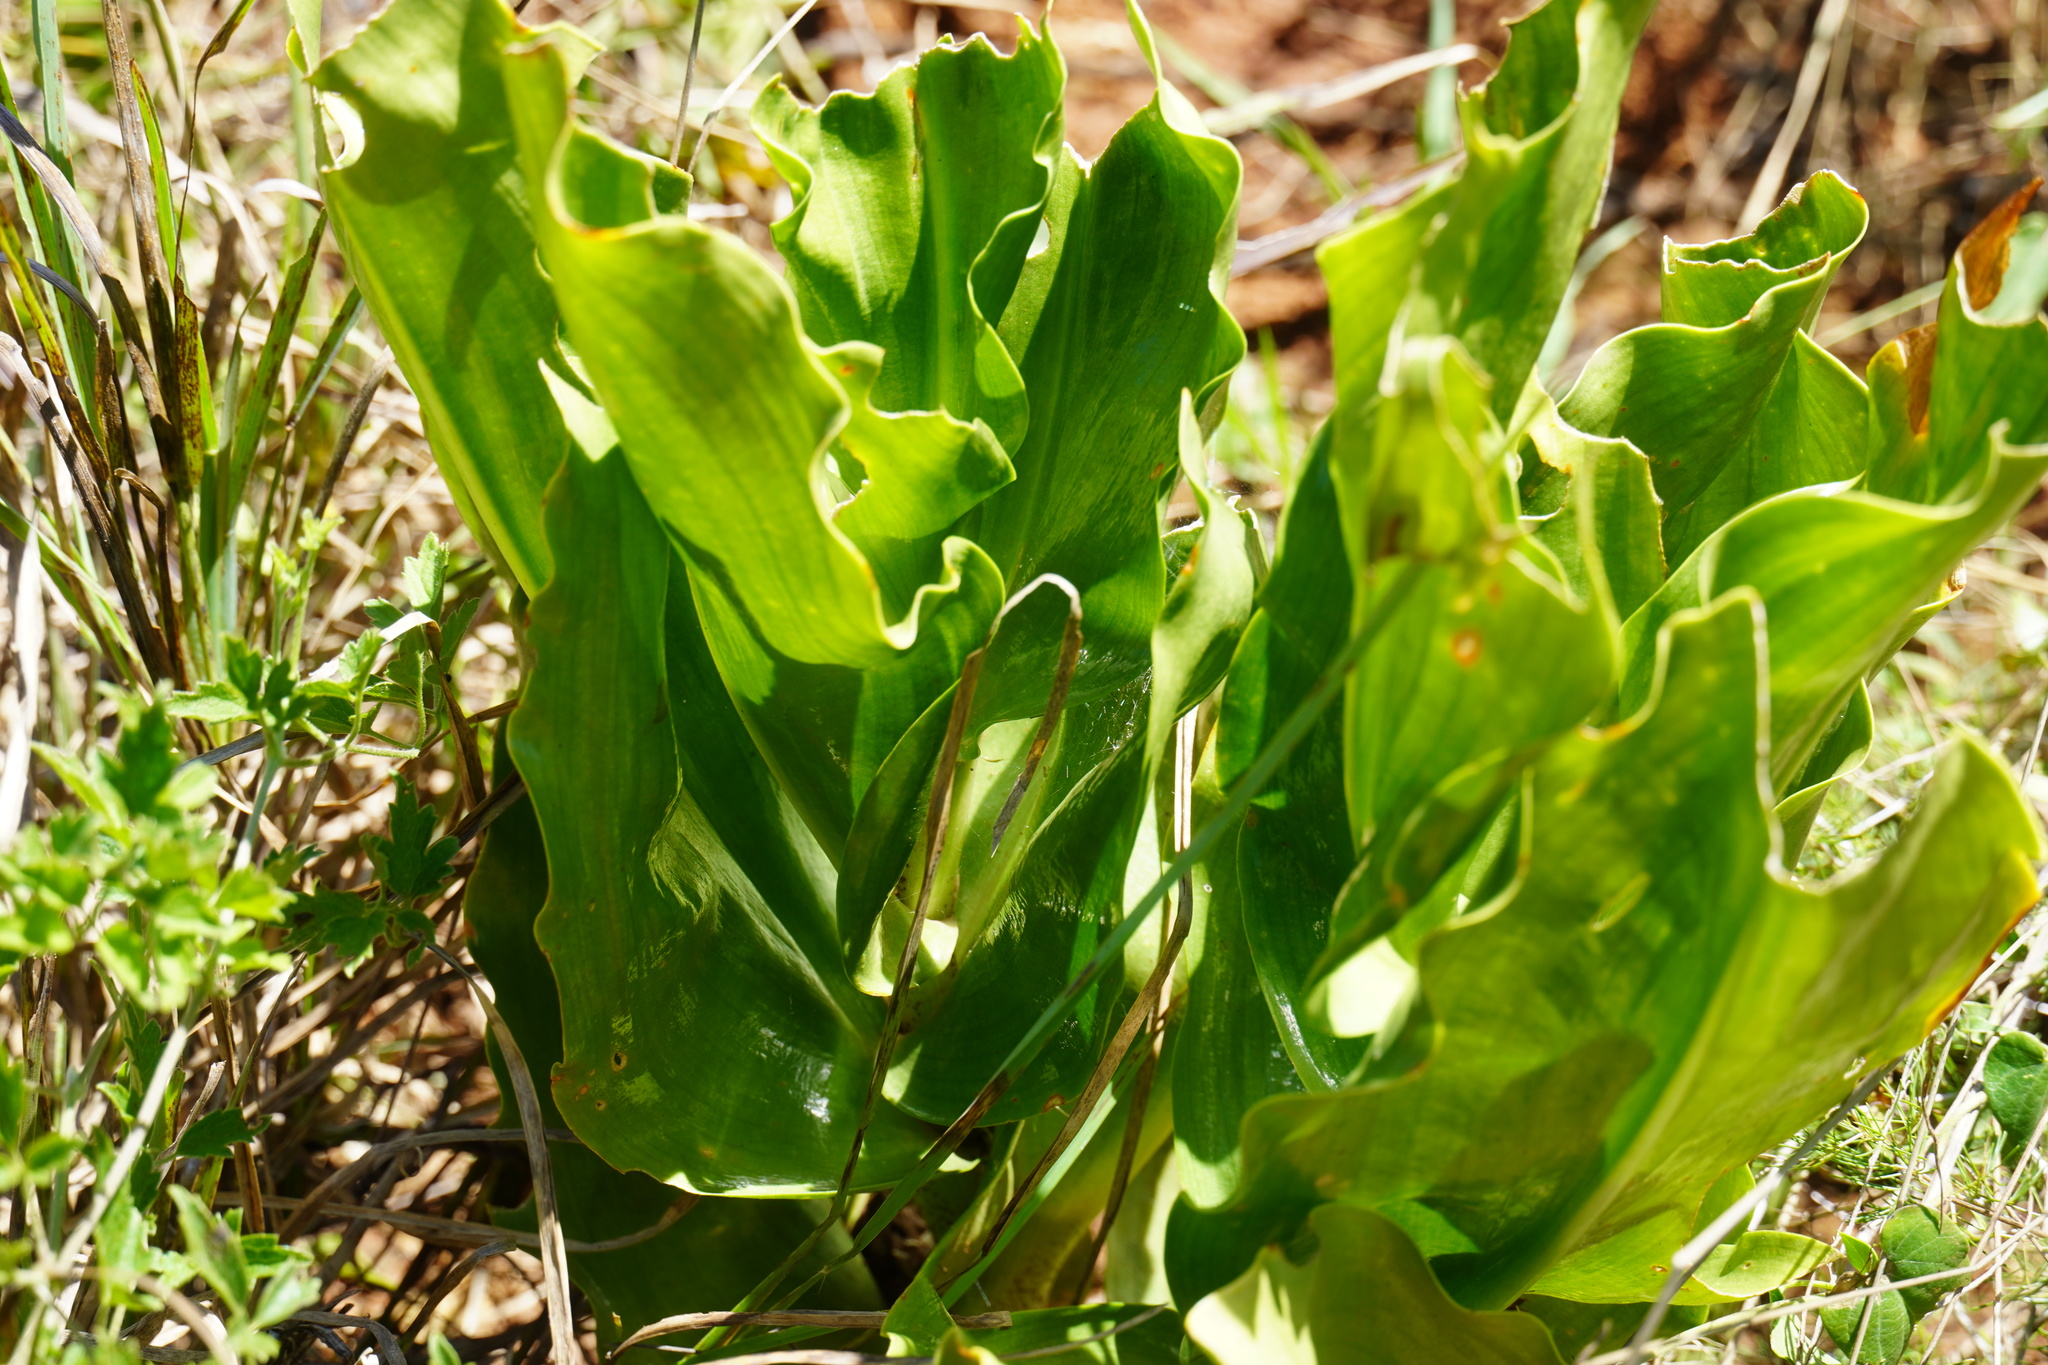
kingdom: Plantae
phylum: Tracheophyta
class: Liliopsida
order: Asparagales
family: Amaryllidaceae
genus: Scadoxus
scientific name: Scadoxus puniceus
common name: Royal-paintbrush
